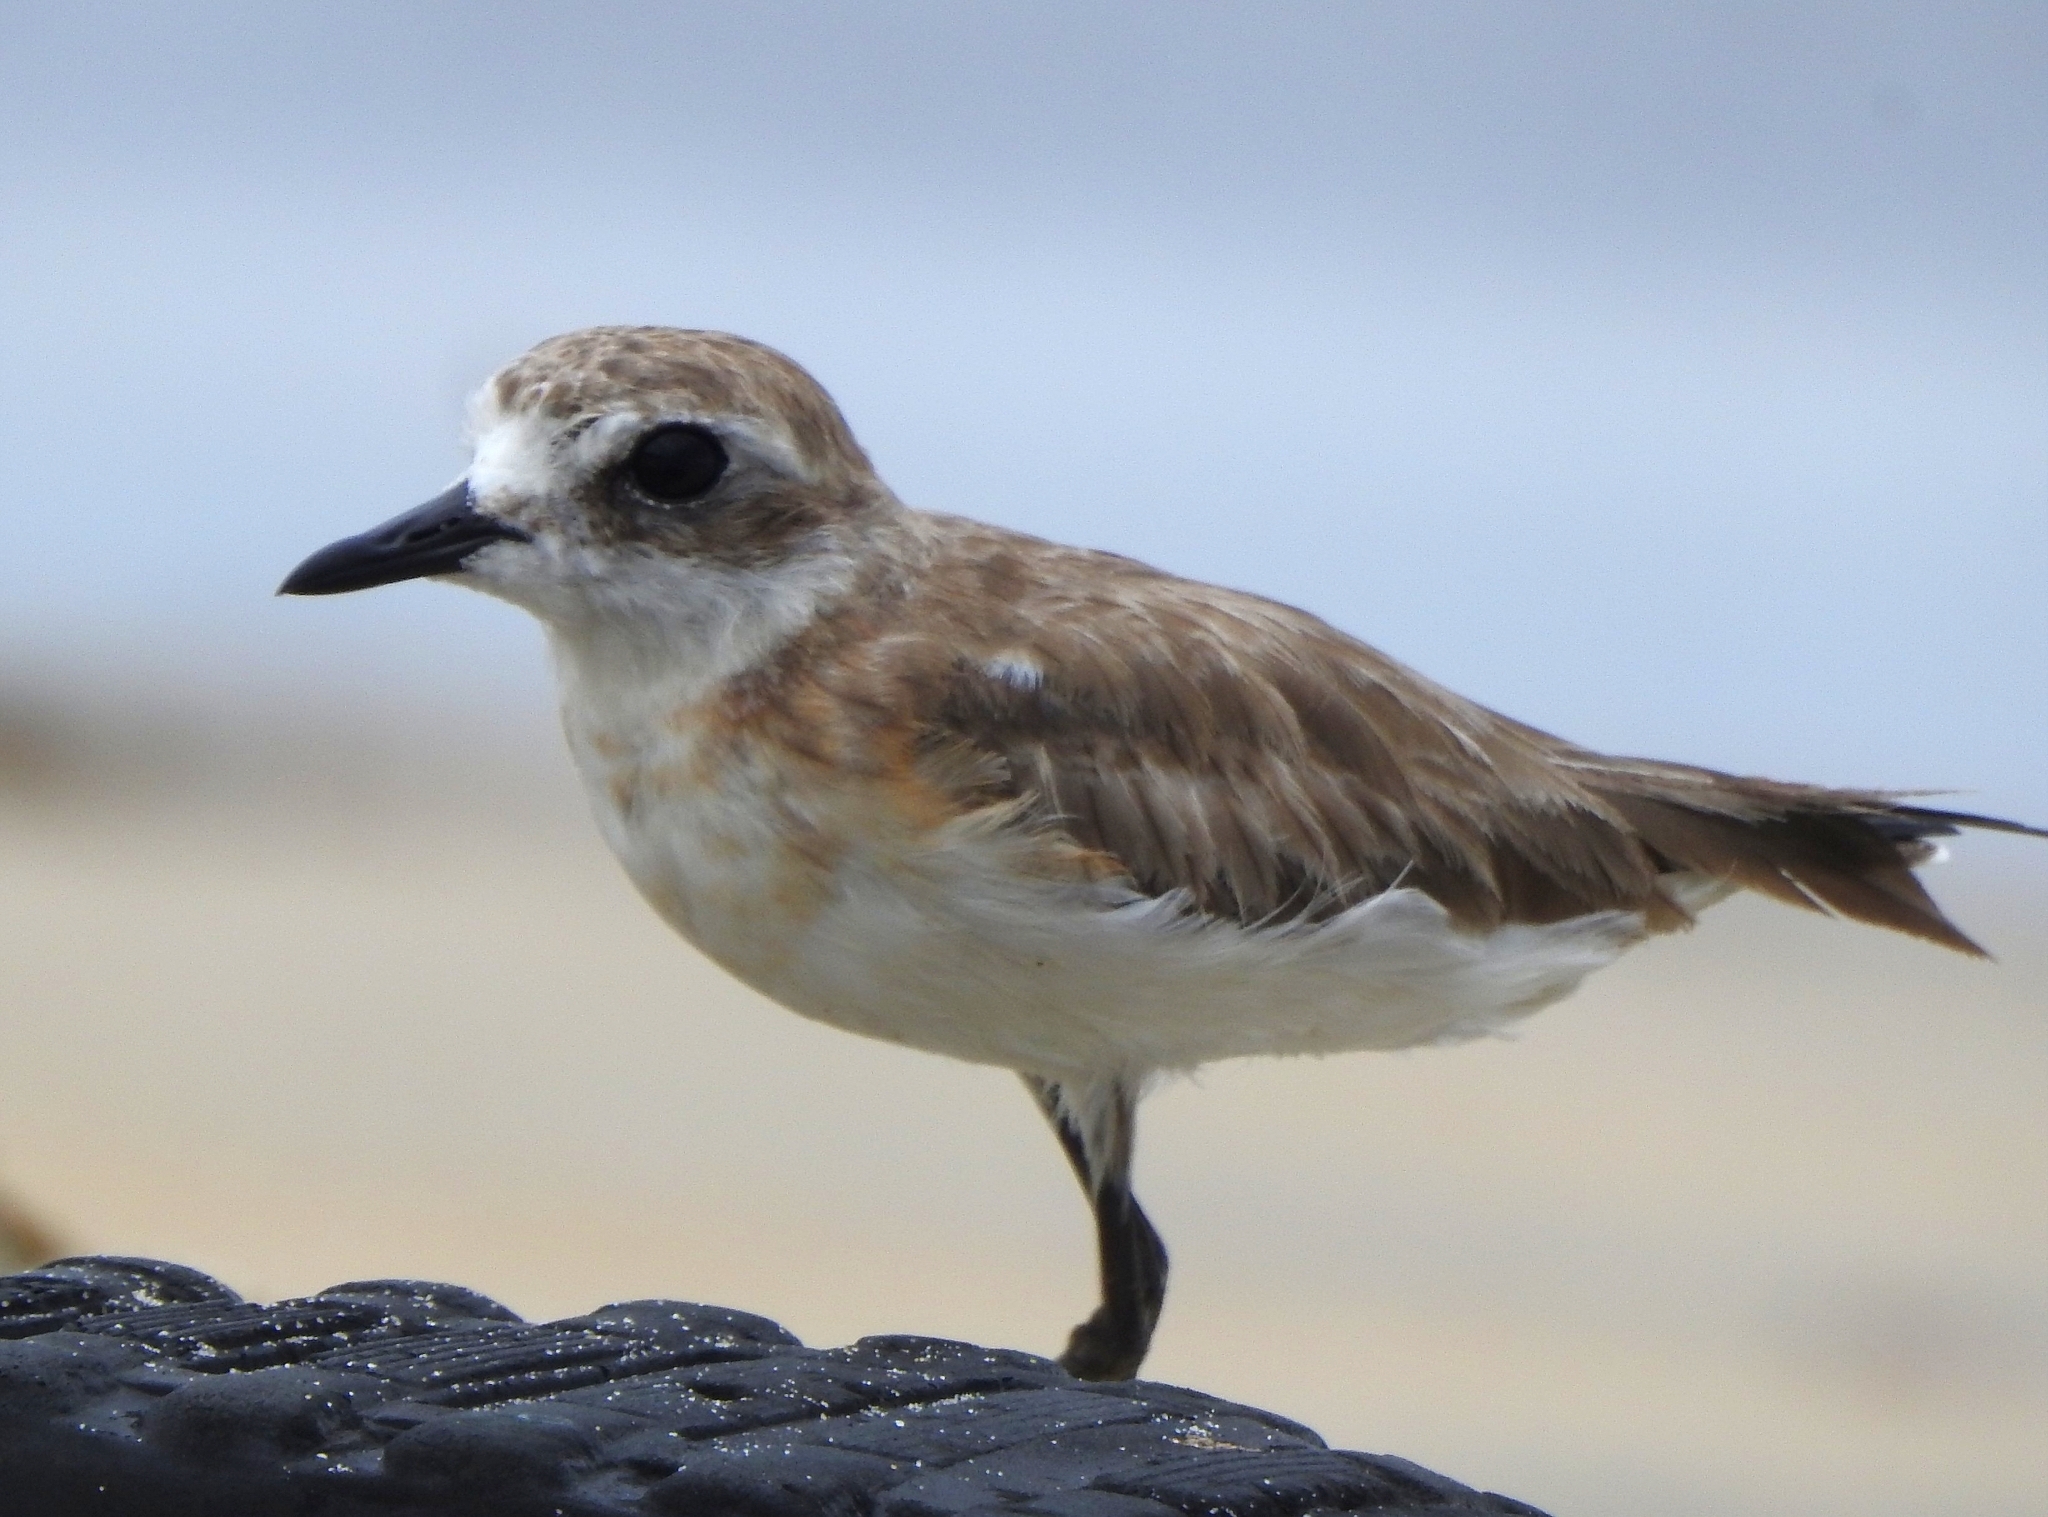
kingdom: Animalia
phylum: Chordata
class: Aves
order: Charadriiformes
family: Charadriidae
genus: Anarhynchus
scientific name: Anarhynchus
